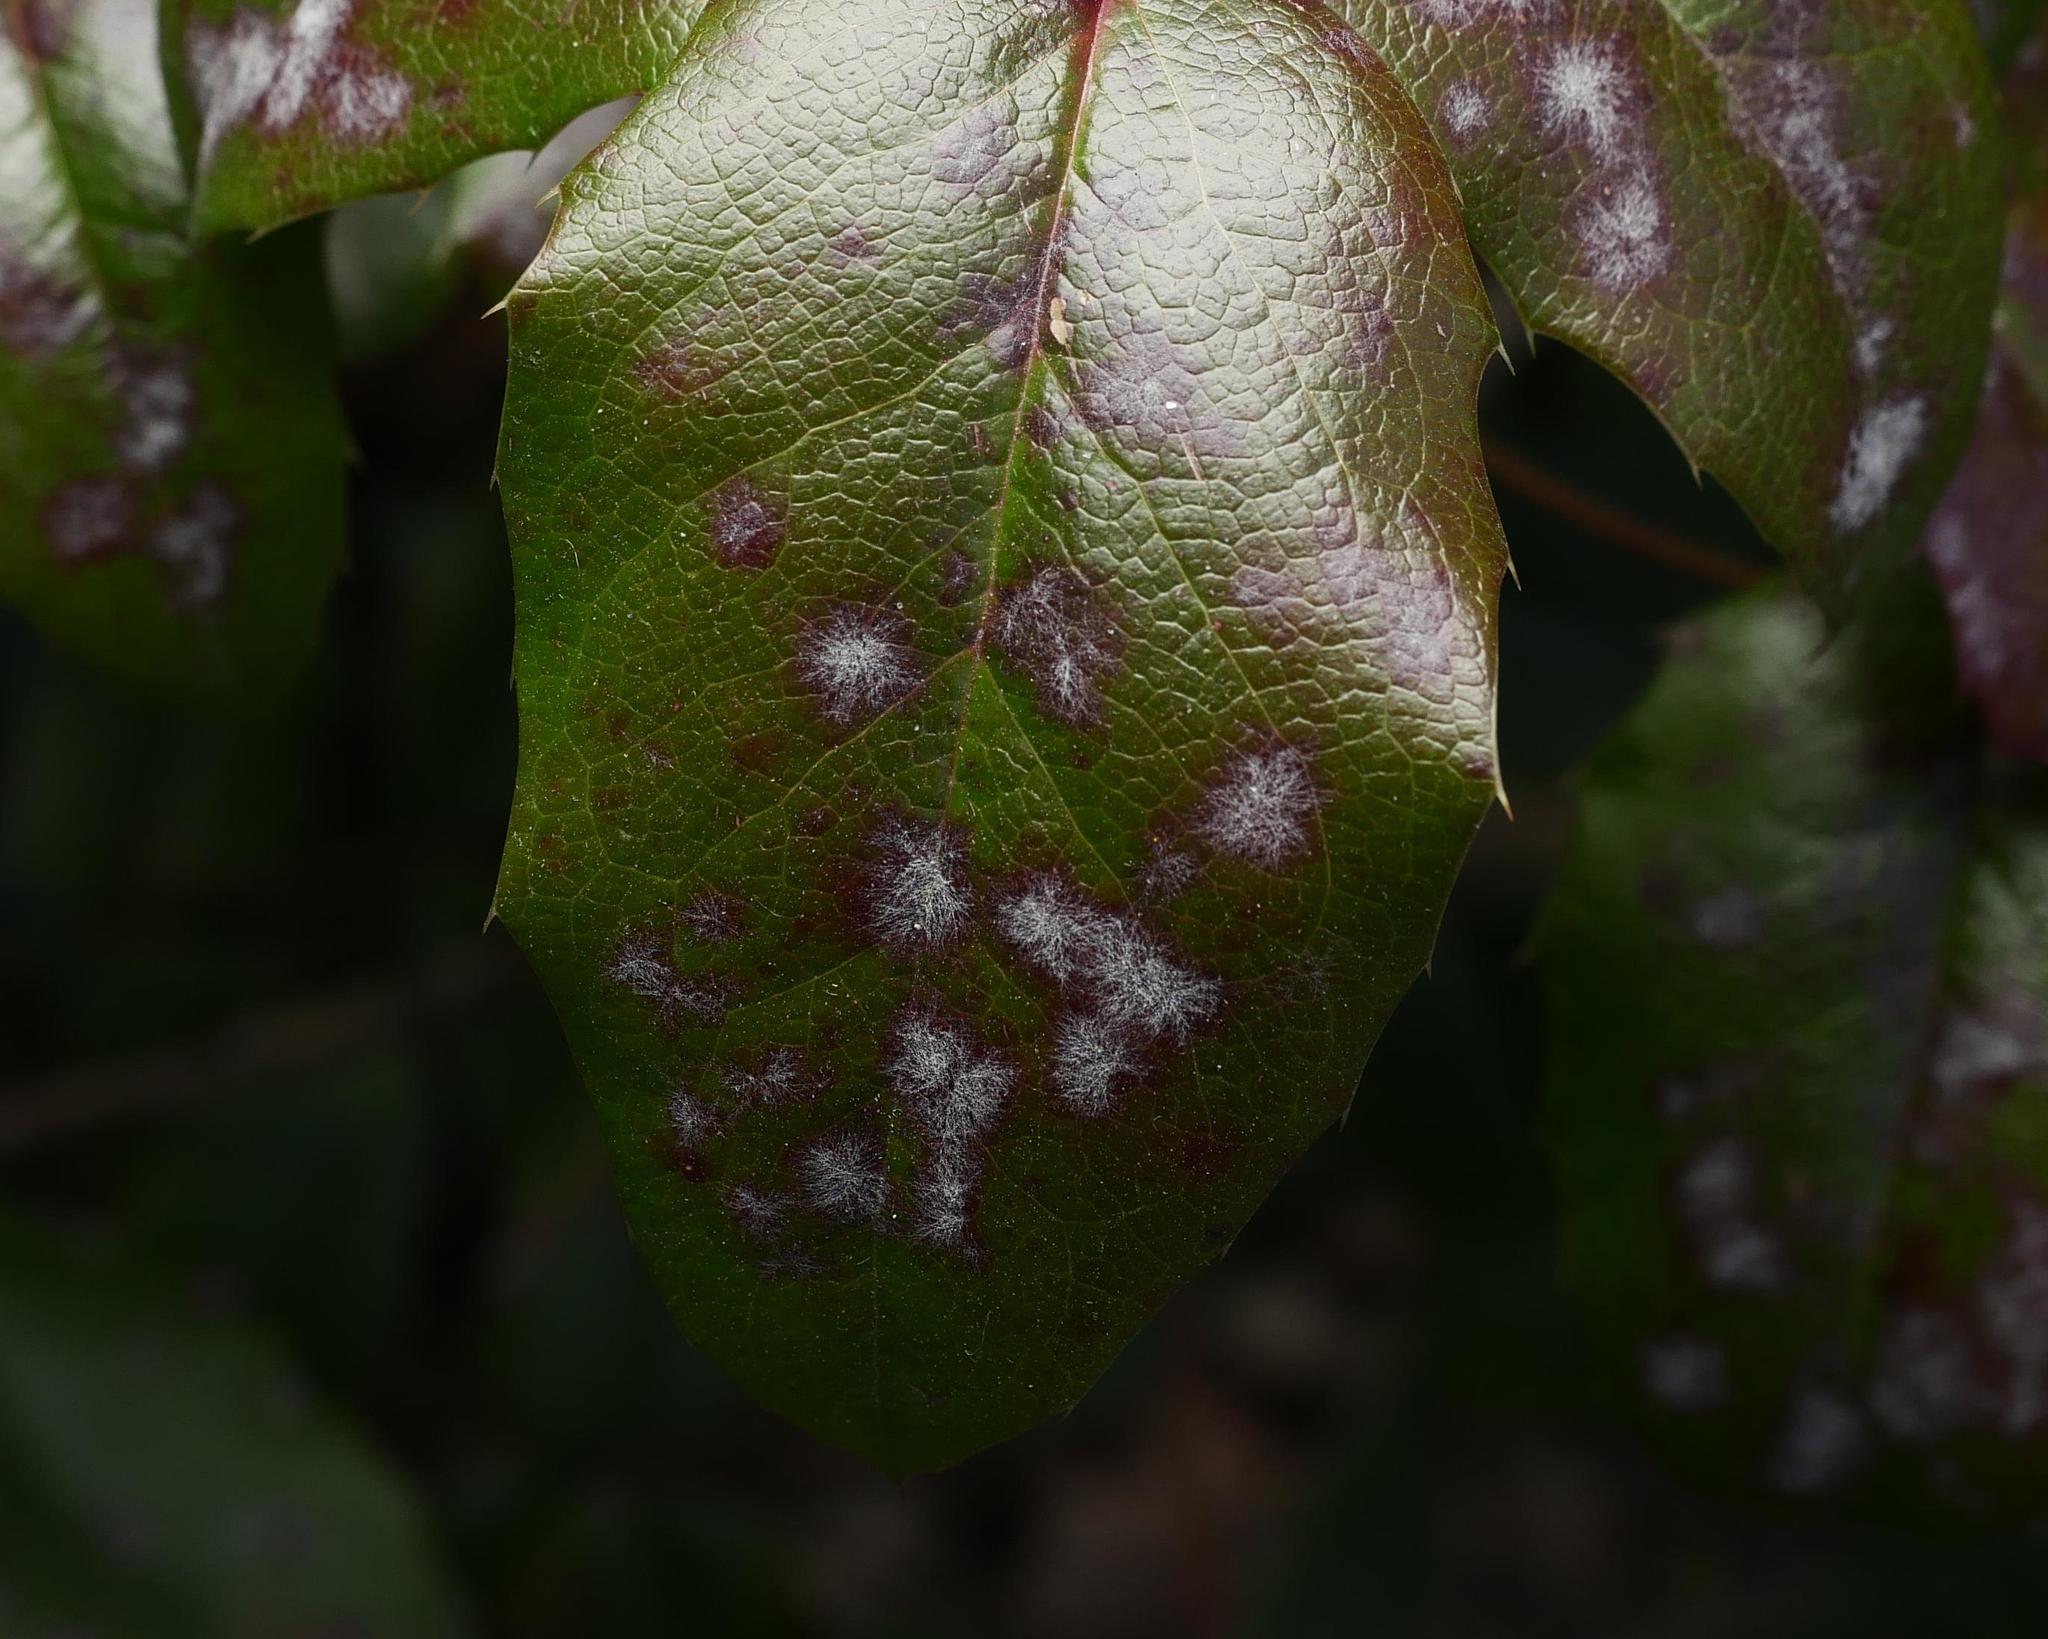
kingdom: Fungi
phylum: Ascomycota
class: Leotiomycetes
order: Helotiales
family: Erysiphaceae
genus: Erysiphe
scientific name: Erysiphe berberidis
